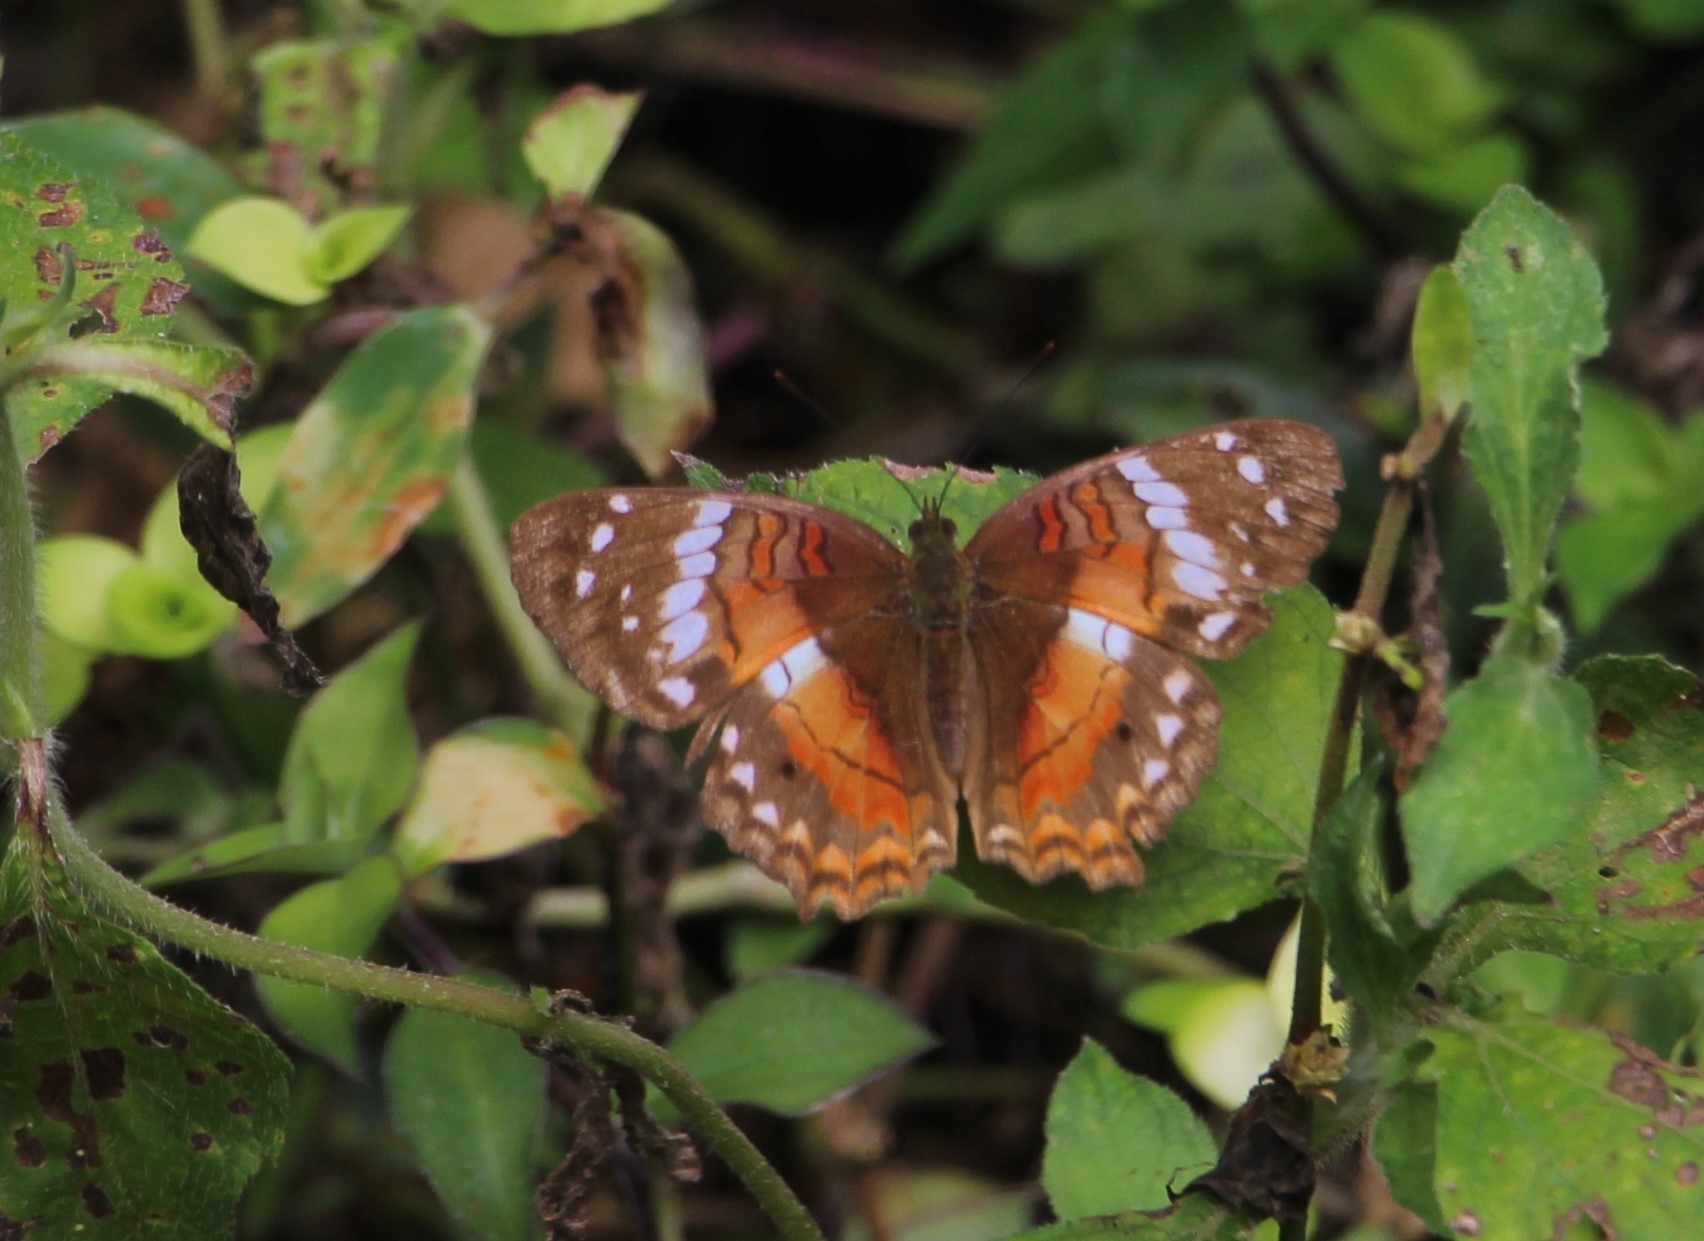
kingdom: Animalia
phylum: Arthropoda
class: Insecta
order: Lepidoptera
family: Nymphalidae
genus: Anartia
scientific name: Anartia amathea
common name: Red peacock
